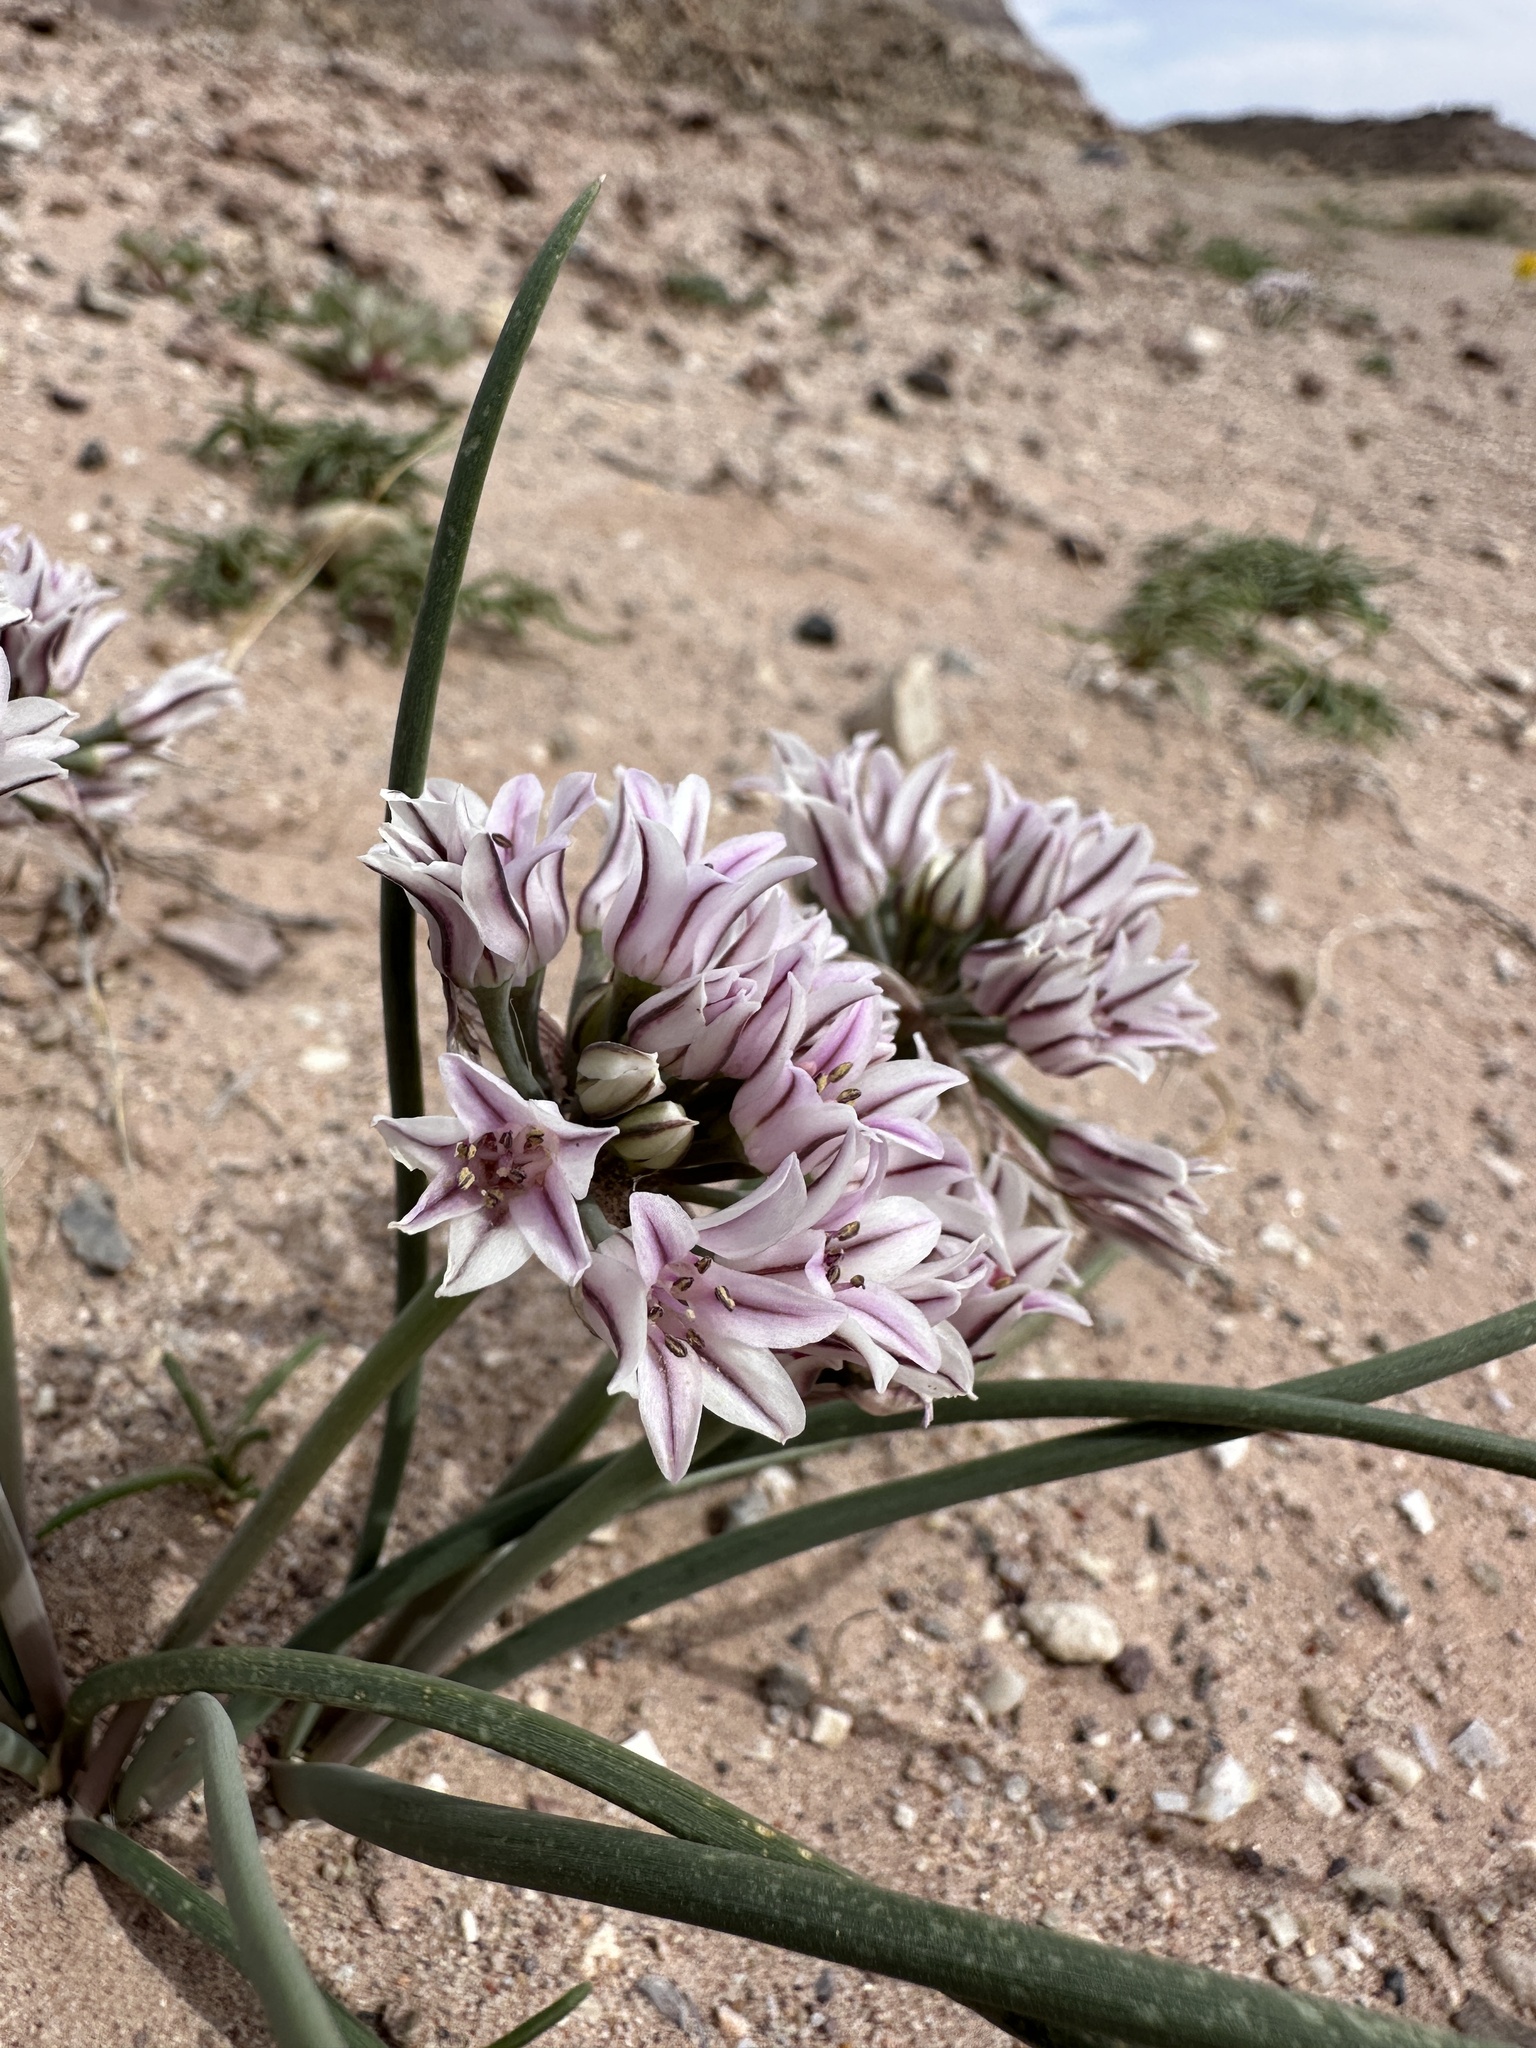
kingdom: Plantae
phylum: Tracheophyta
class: Liliopsida
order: Asparagales
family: Amaryllidaceae
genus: Allium
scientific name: Allium macropetalum
